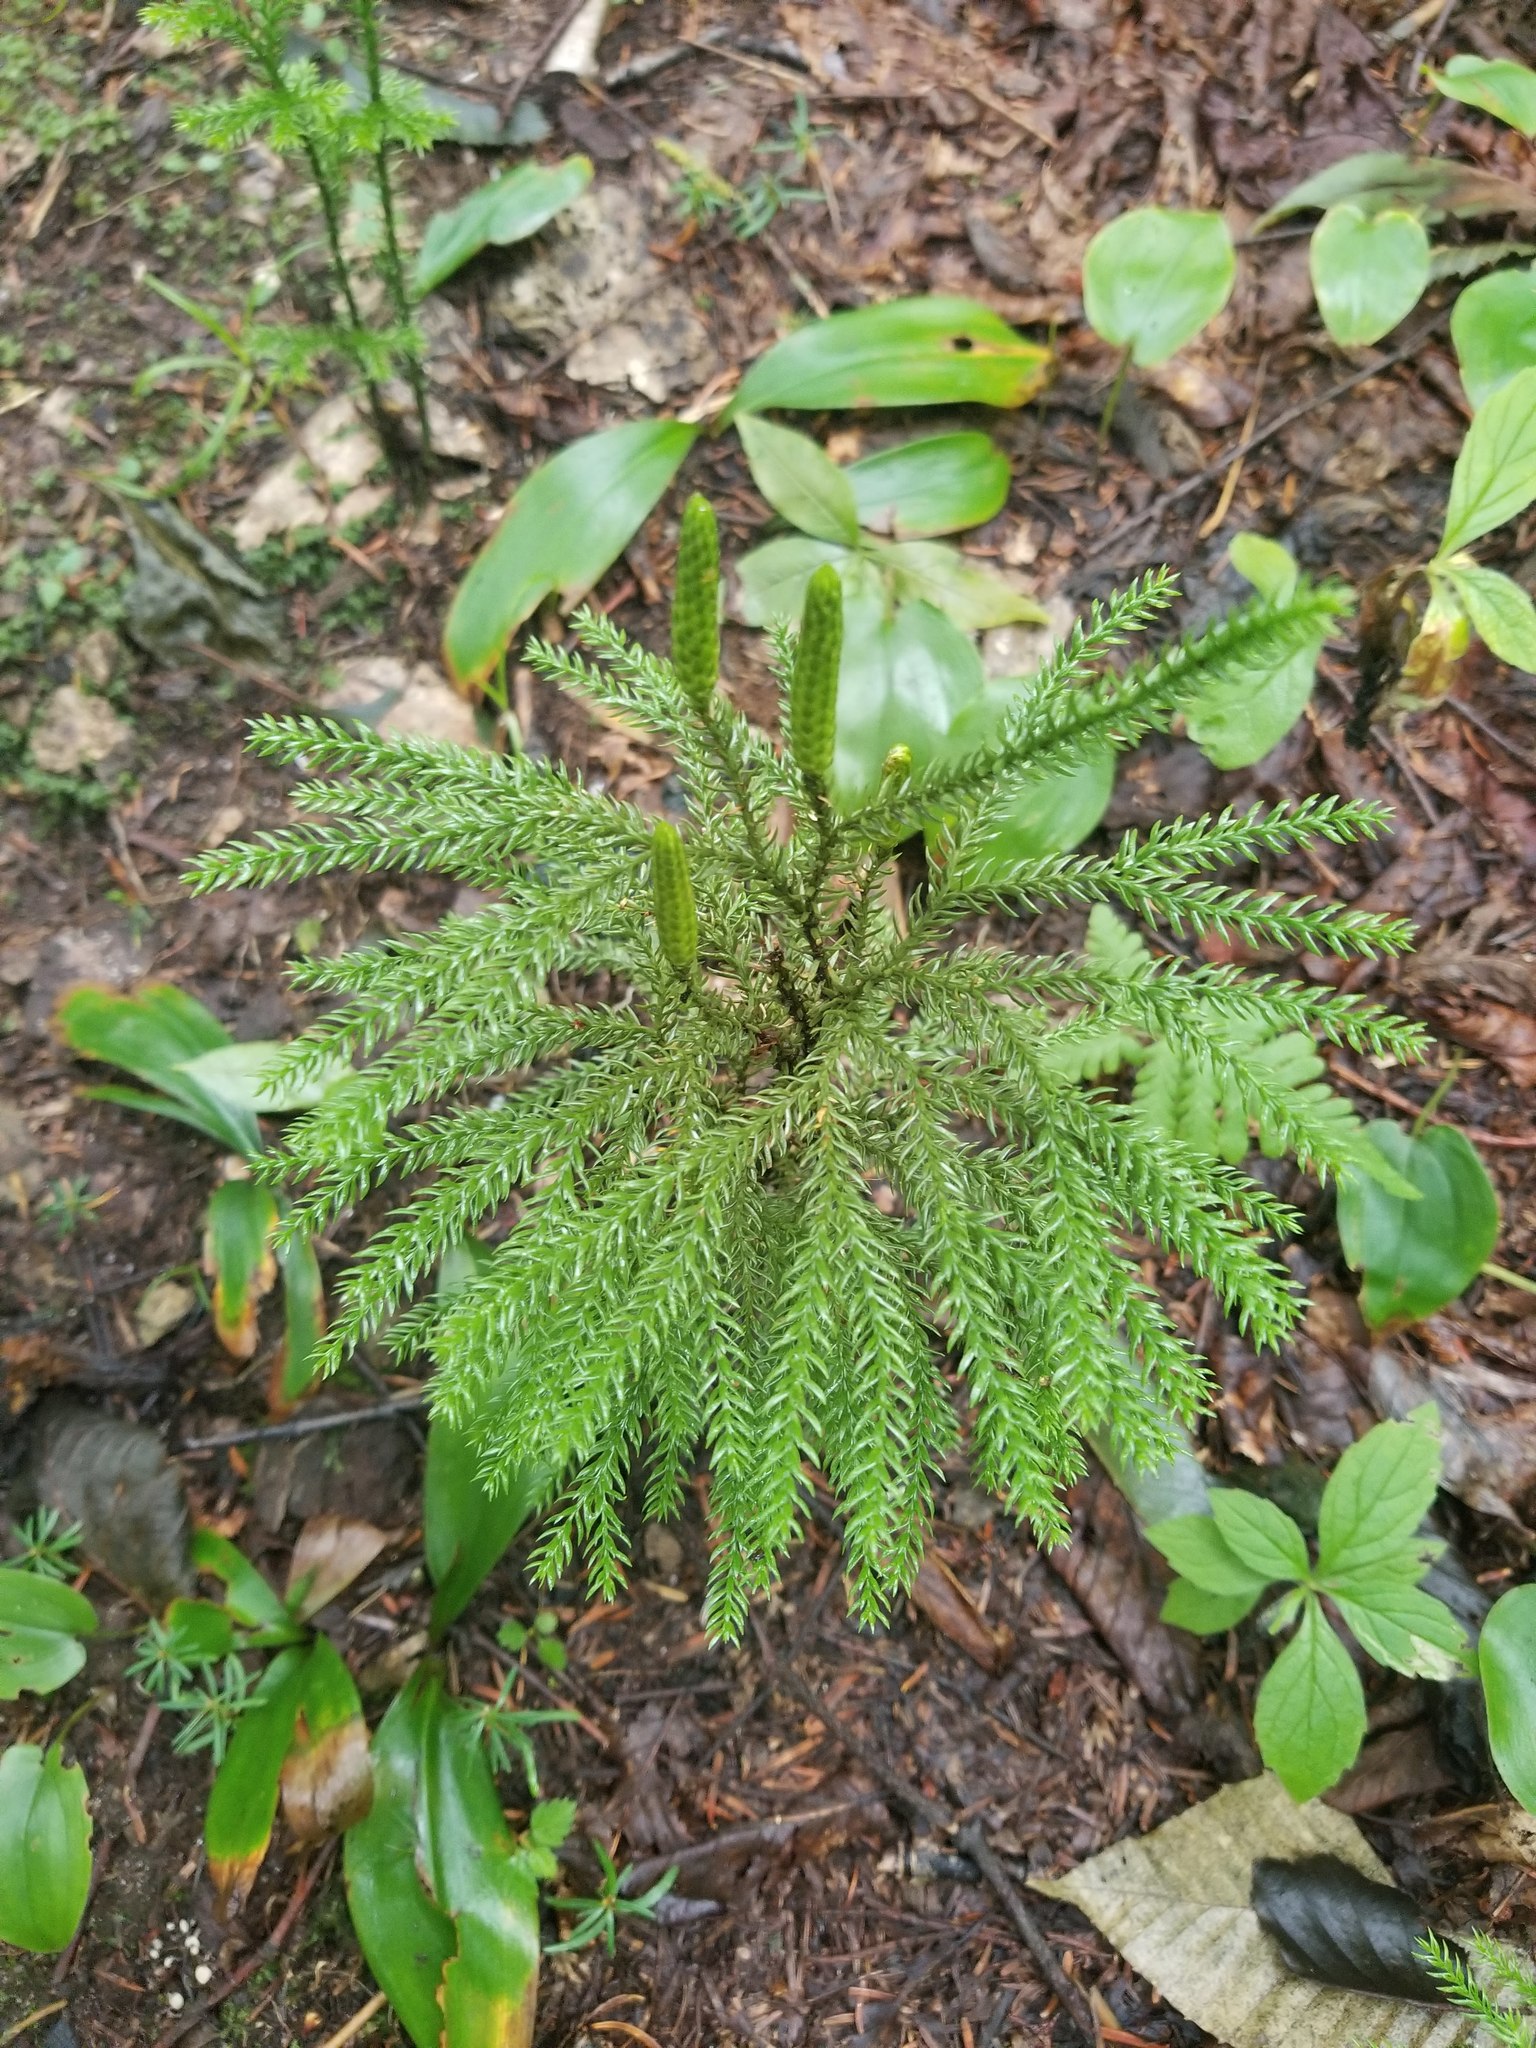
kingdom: Plantae
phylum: Tracheophyta
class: Lycopodiopsida
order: Lycopodiales
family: Lycopodiaceae
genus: Dendrolycopodium
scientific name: Dendrolycopodium dendroideum
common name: Northern tree-clubmoss
